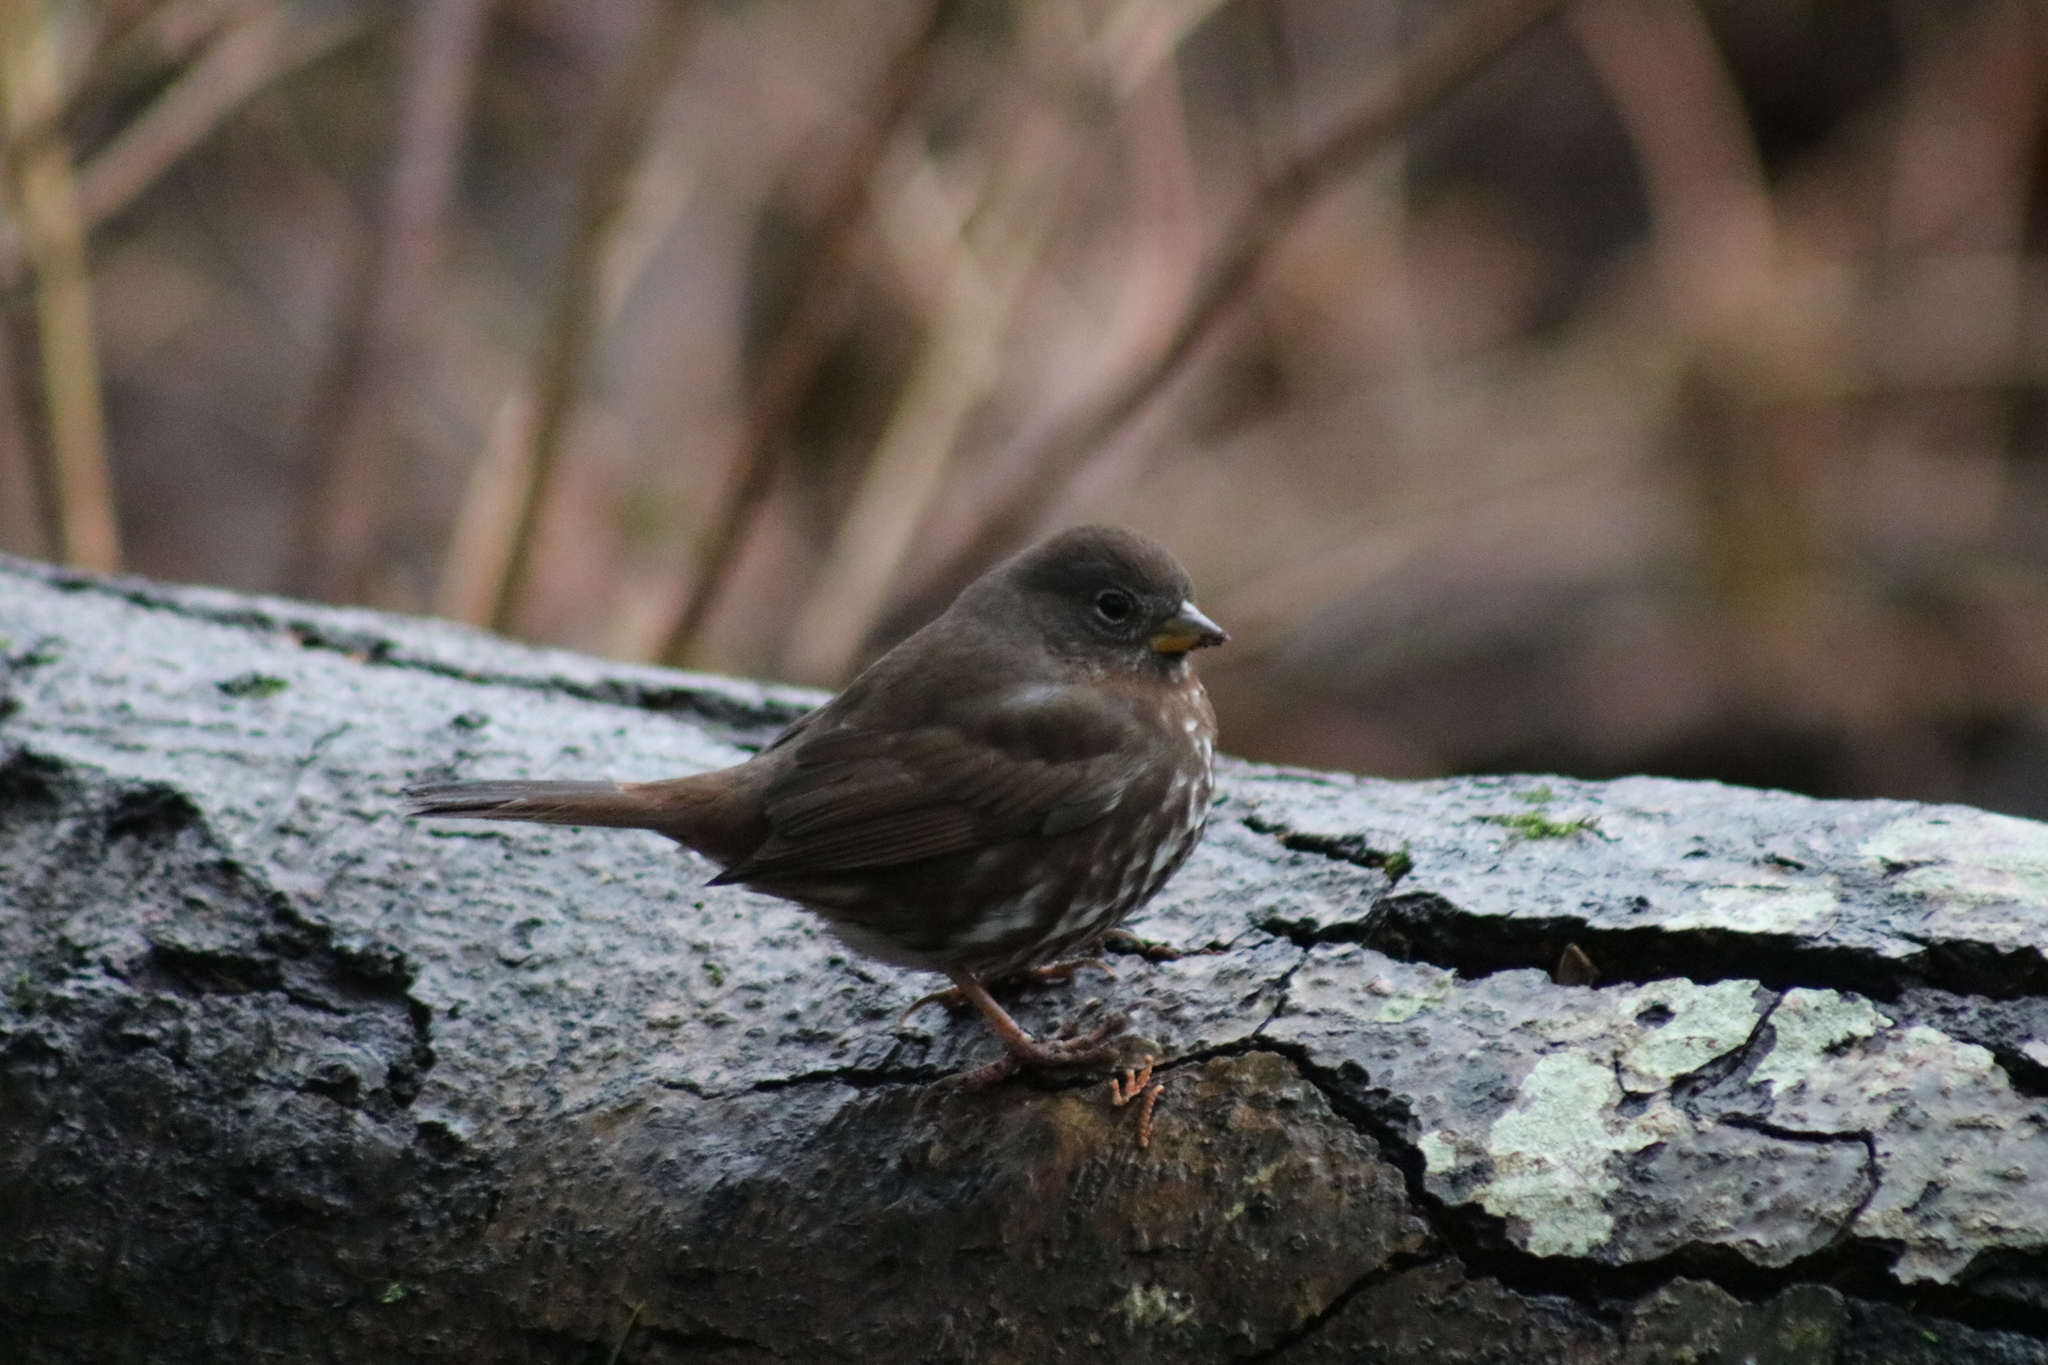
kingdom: Animalia
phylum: Chordata
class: Aves
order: Passeriformes
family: Passerellidae
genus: Passerella
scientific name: Passerella iliaca
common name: Fox sparrow
